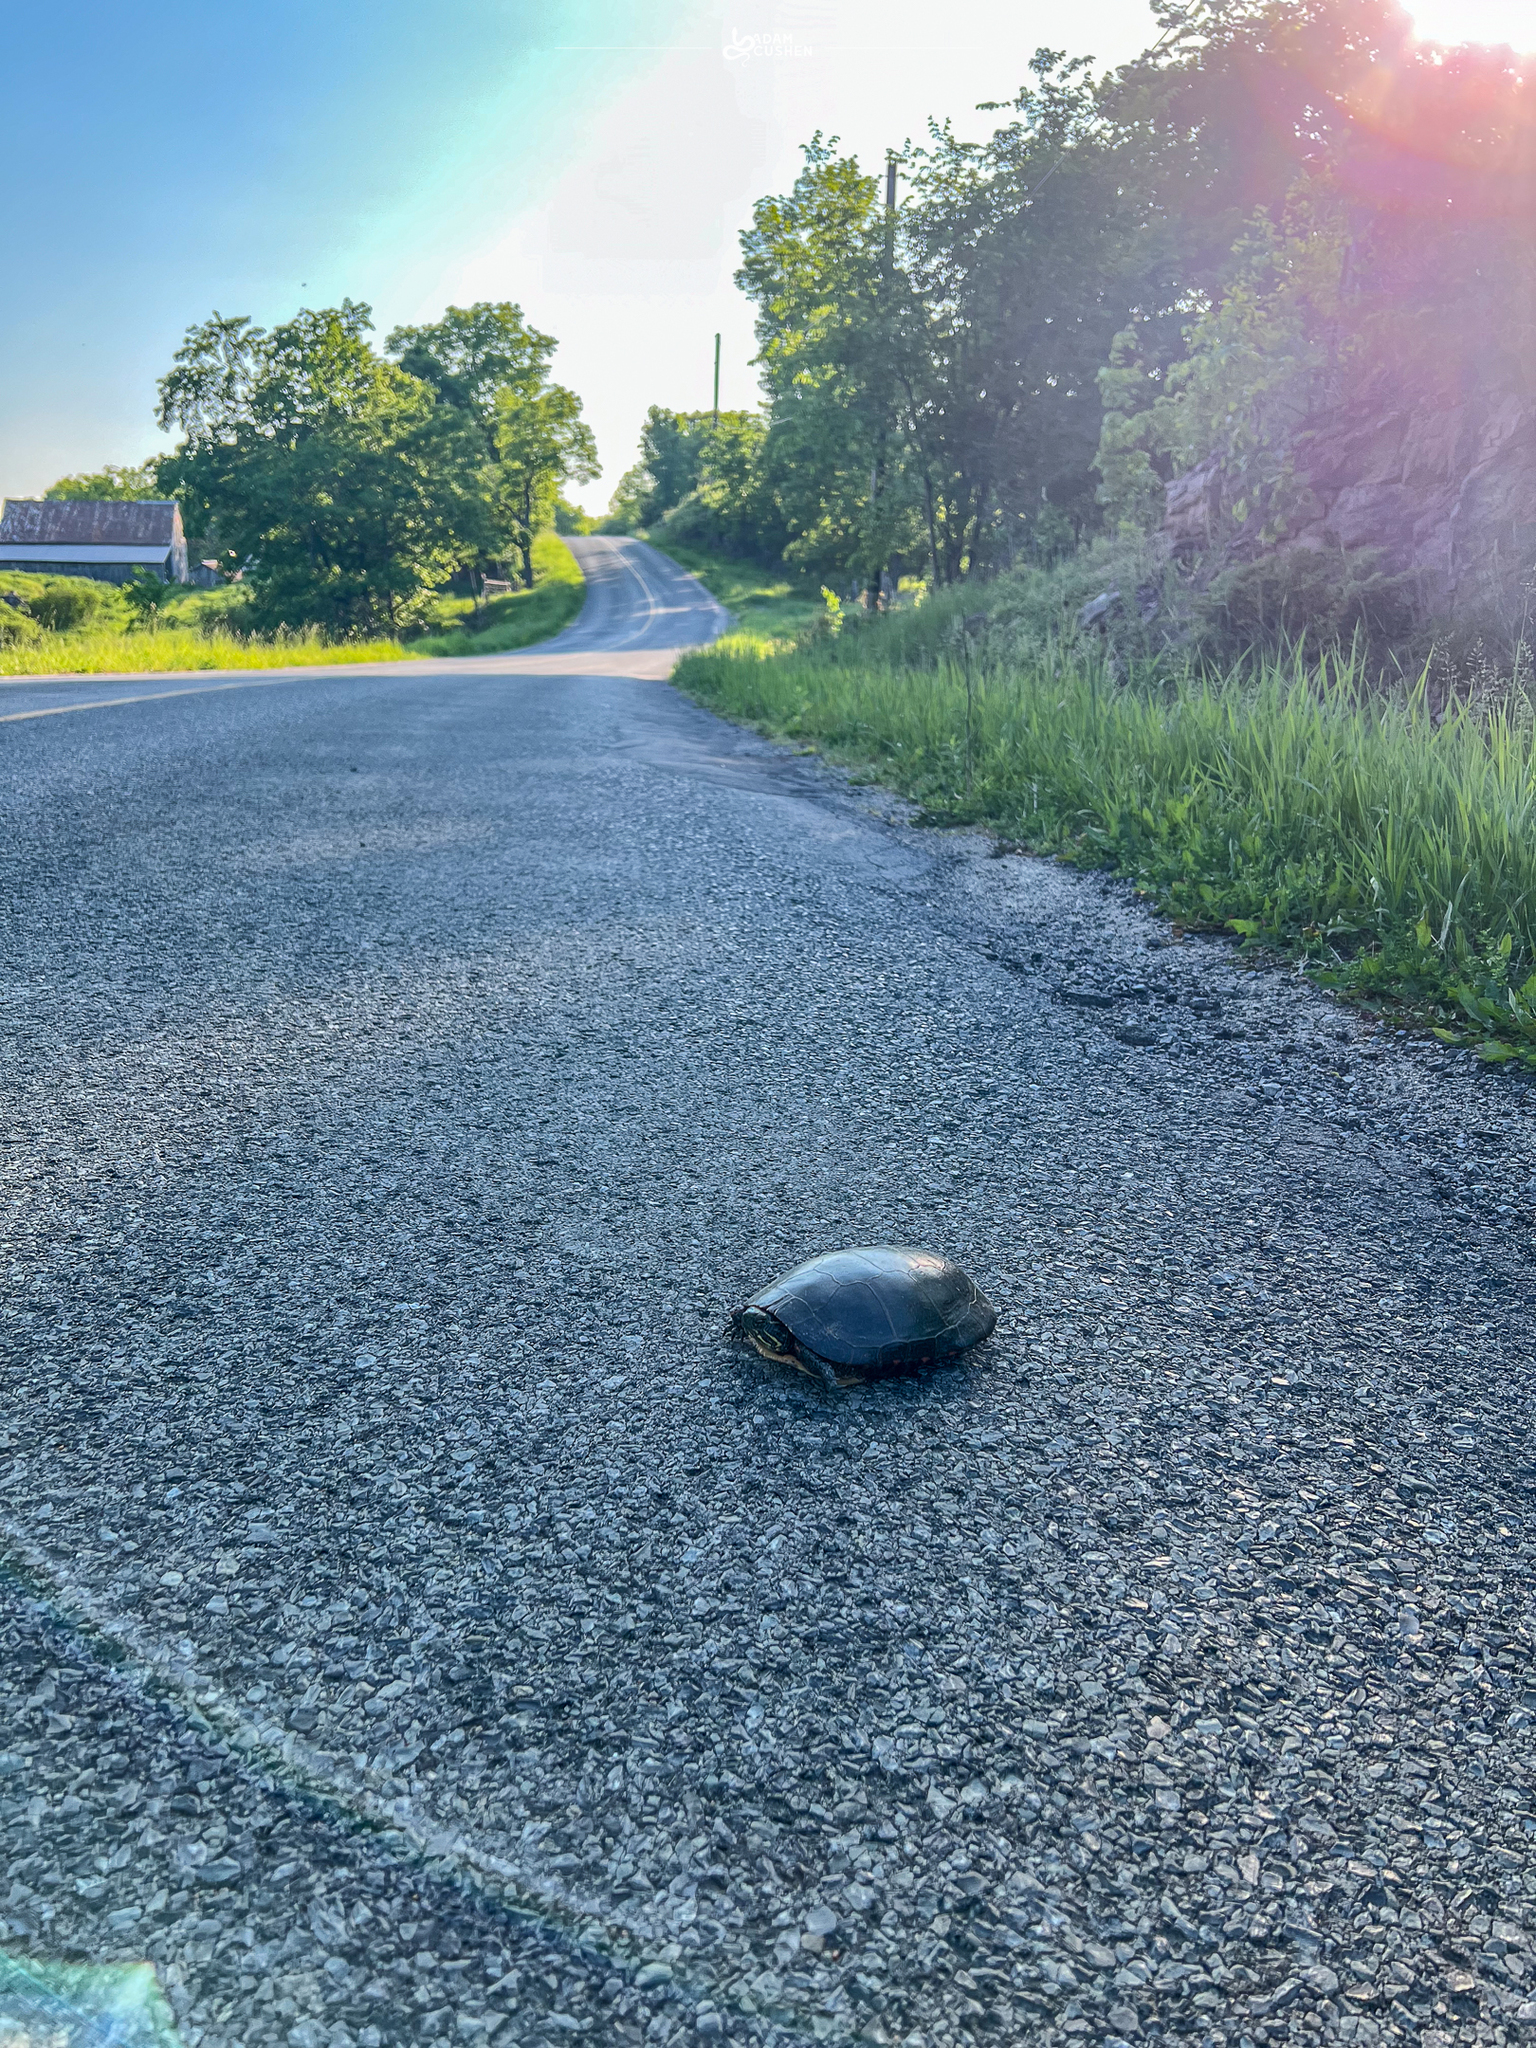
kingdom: Animalia
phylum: Chordata
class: Testudines
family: Emydidae
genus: Chrysemys
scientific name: Chrysemys picta
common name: Painted turtle
